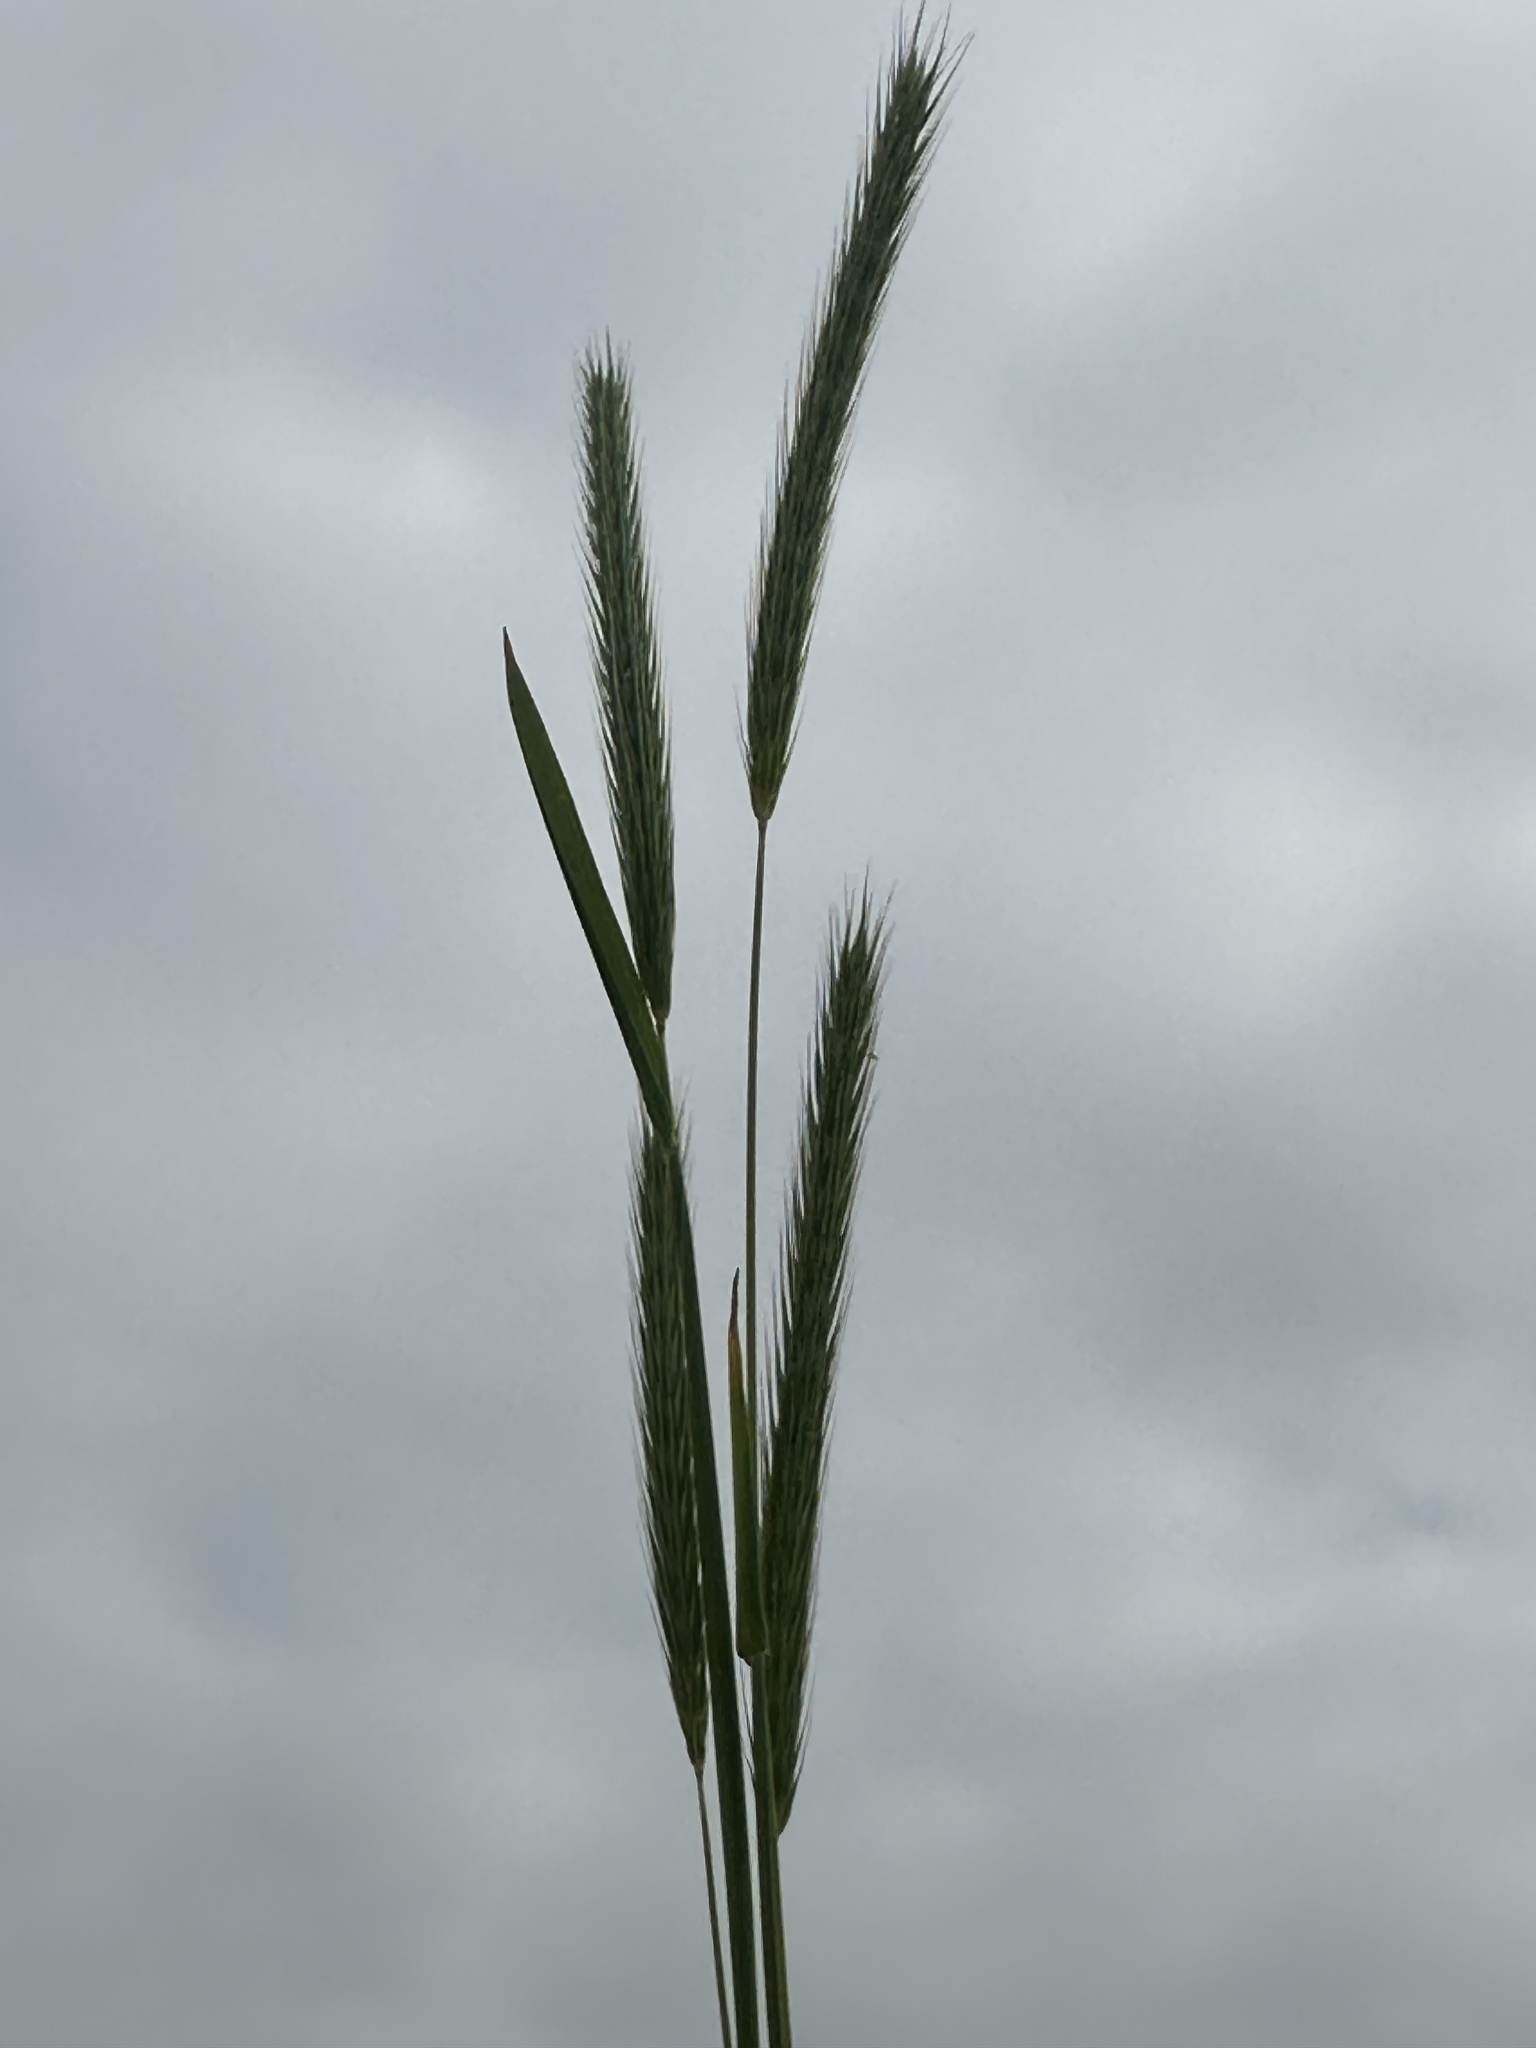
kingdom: Plantae
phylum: Tracheophyta
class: Liliopsida
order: Poales
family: Poaceae
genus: Hordeum
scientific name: Hordeum pusillum
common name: Little barley
